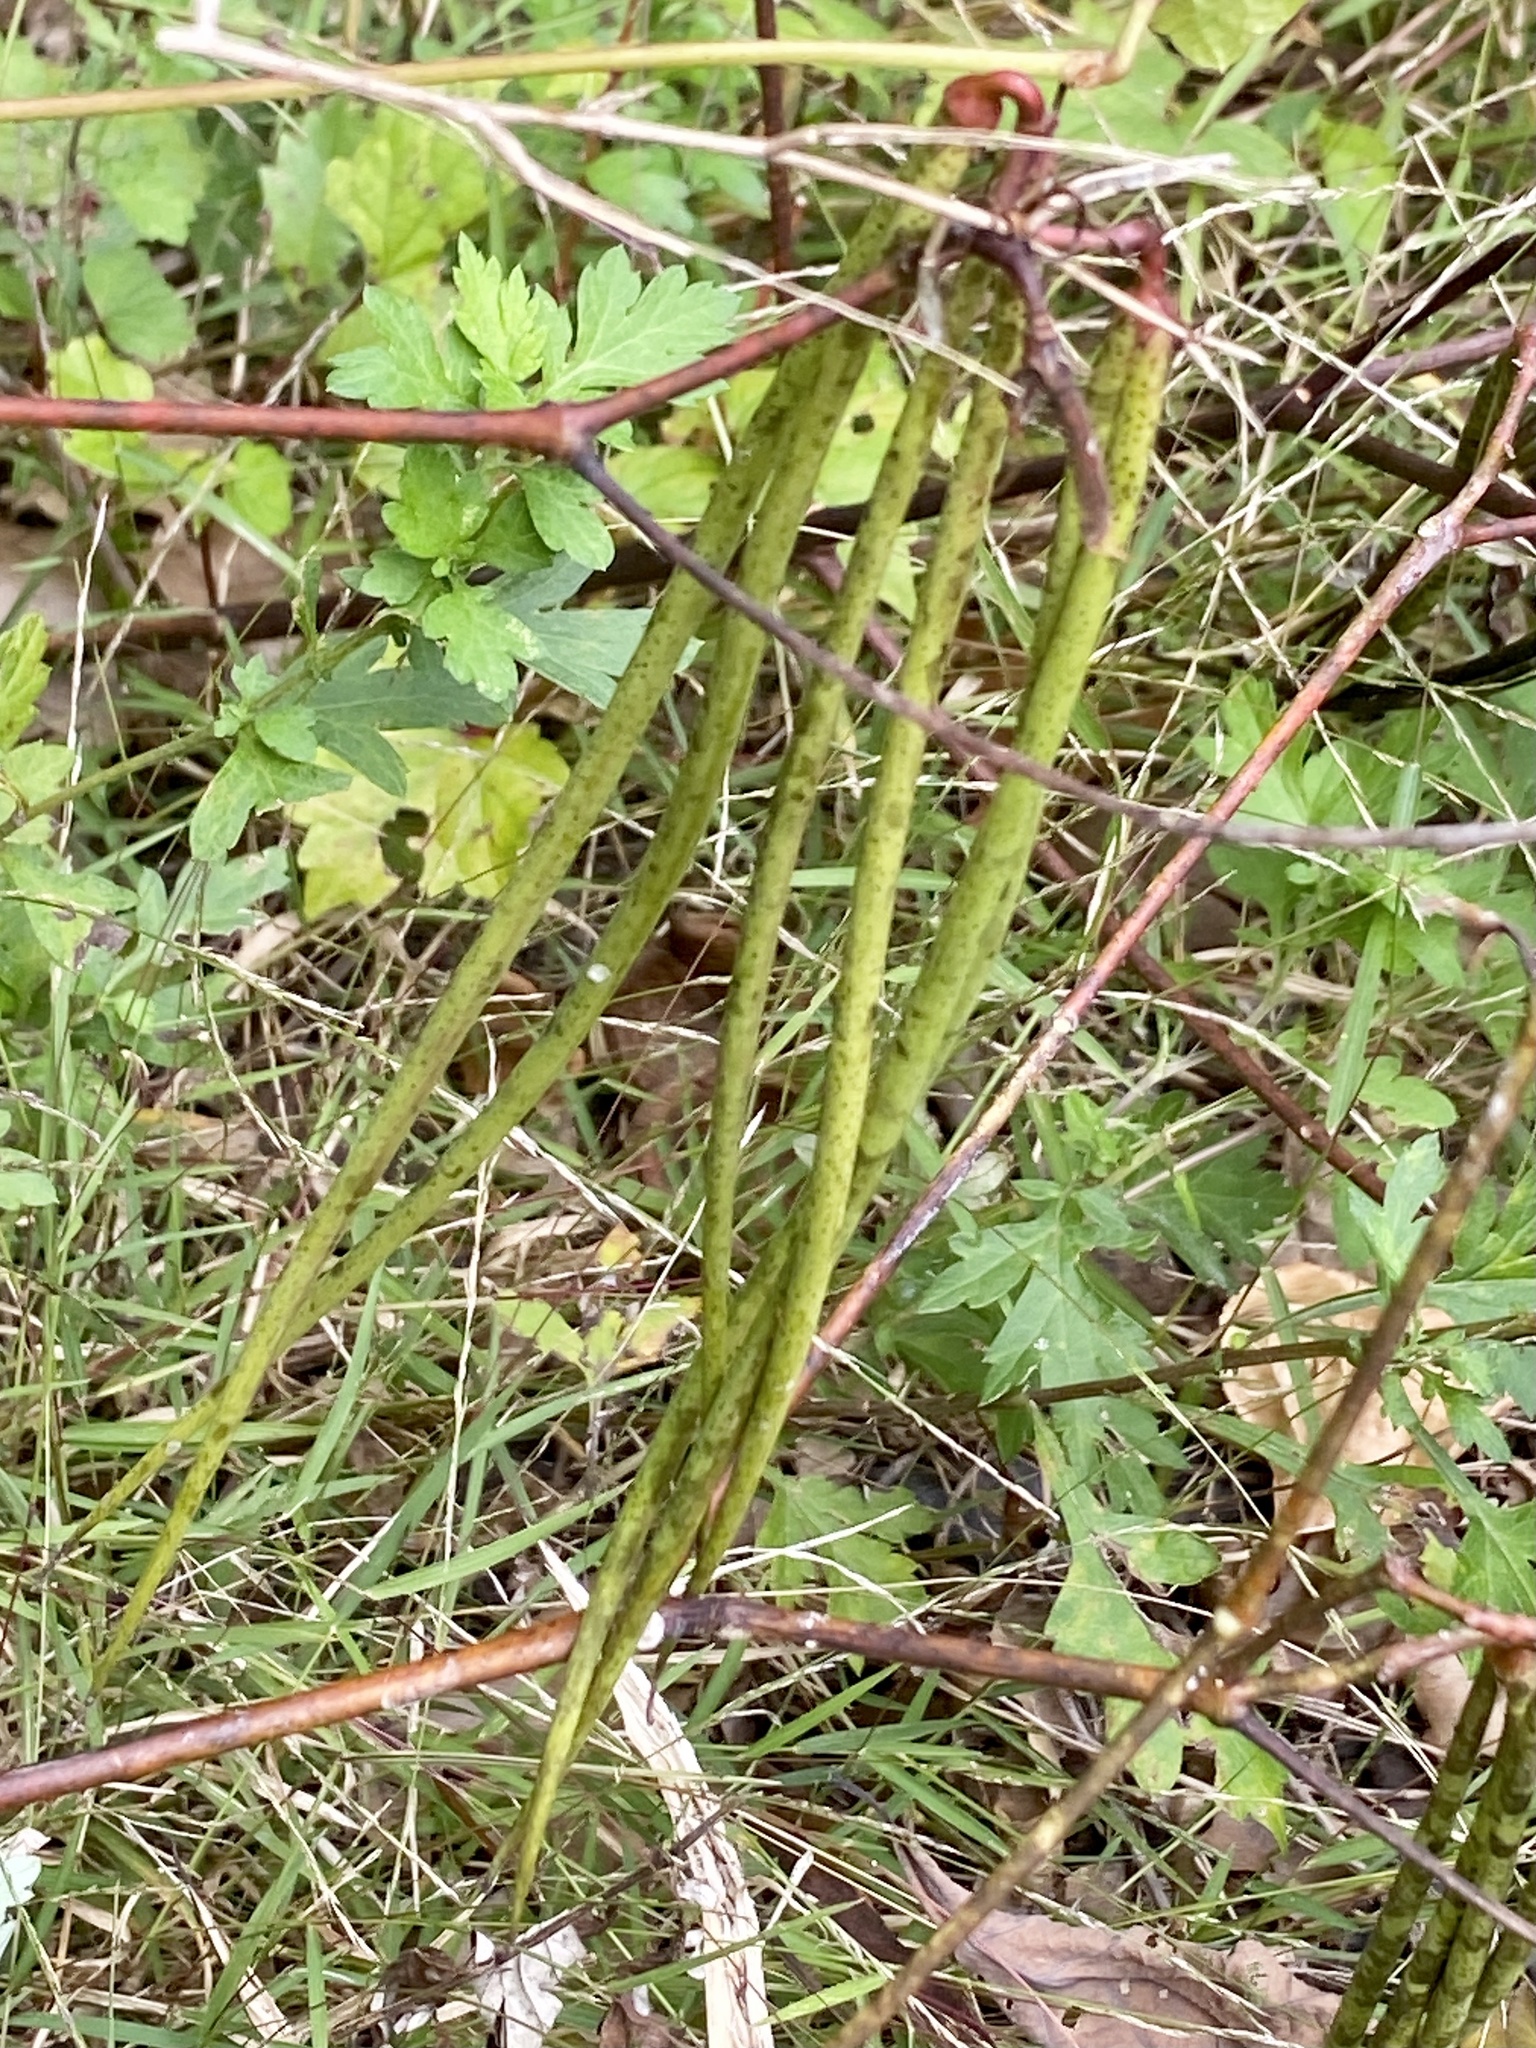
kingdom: Plantae
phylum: Tracheophyta
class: Magnoliopsida
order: Gentianales
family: Apocynaceae
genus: Apocynum
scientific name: Apocynum cannabinum
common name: Hemp dogbane
